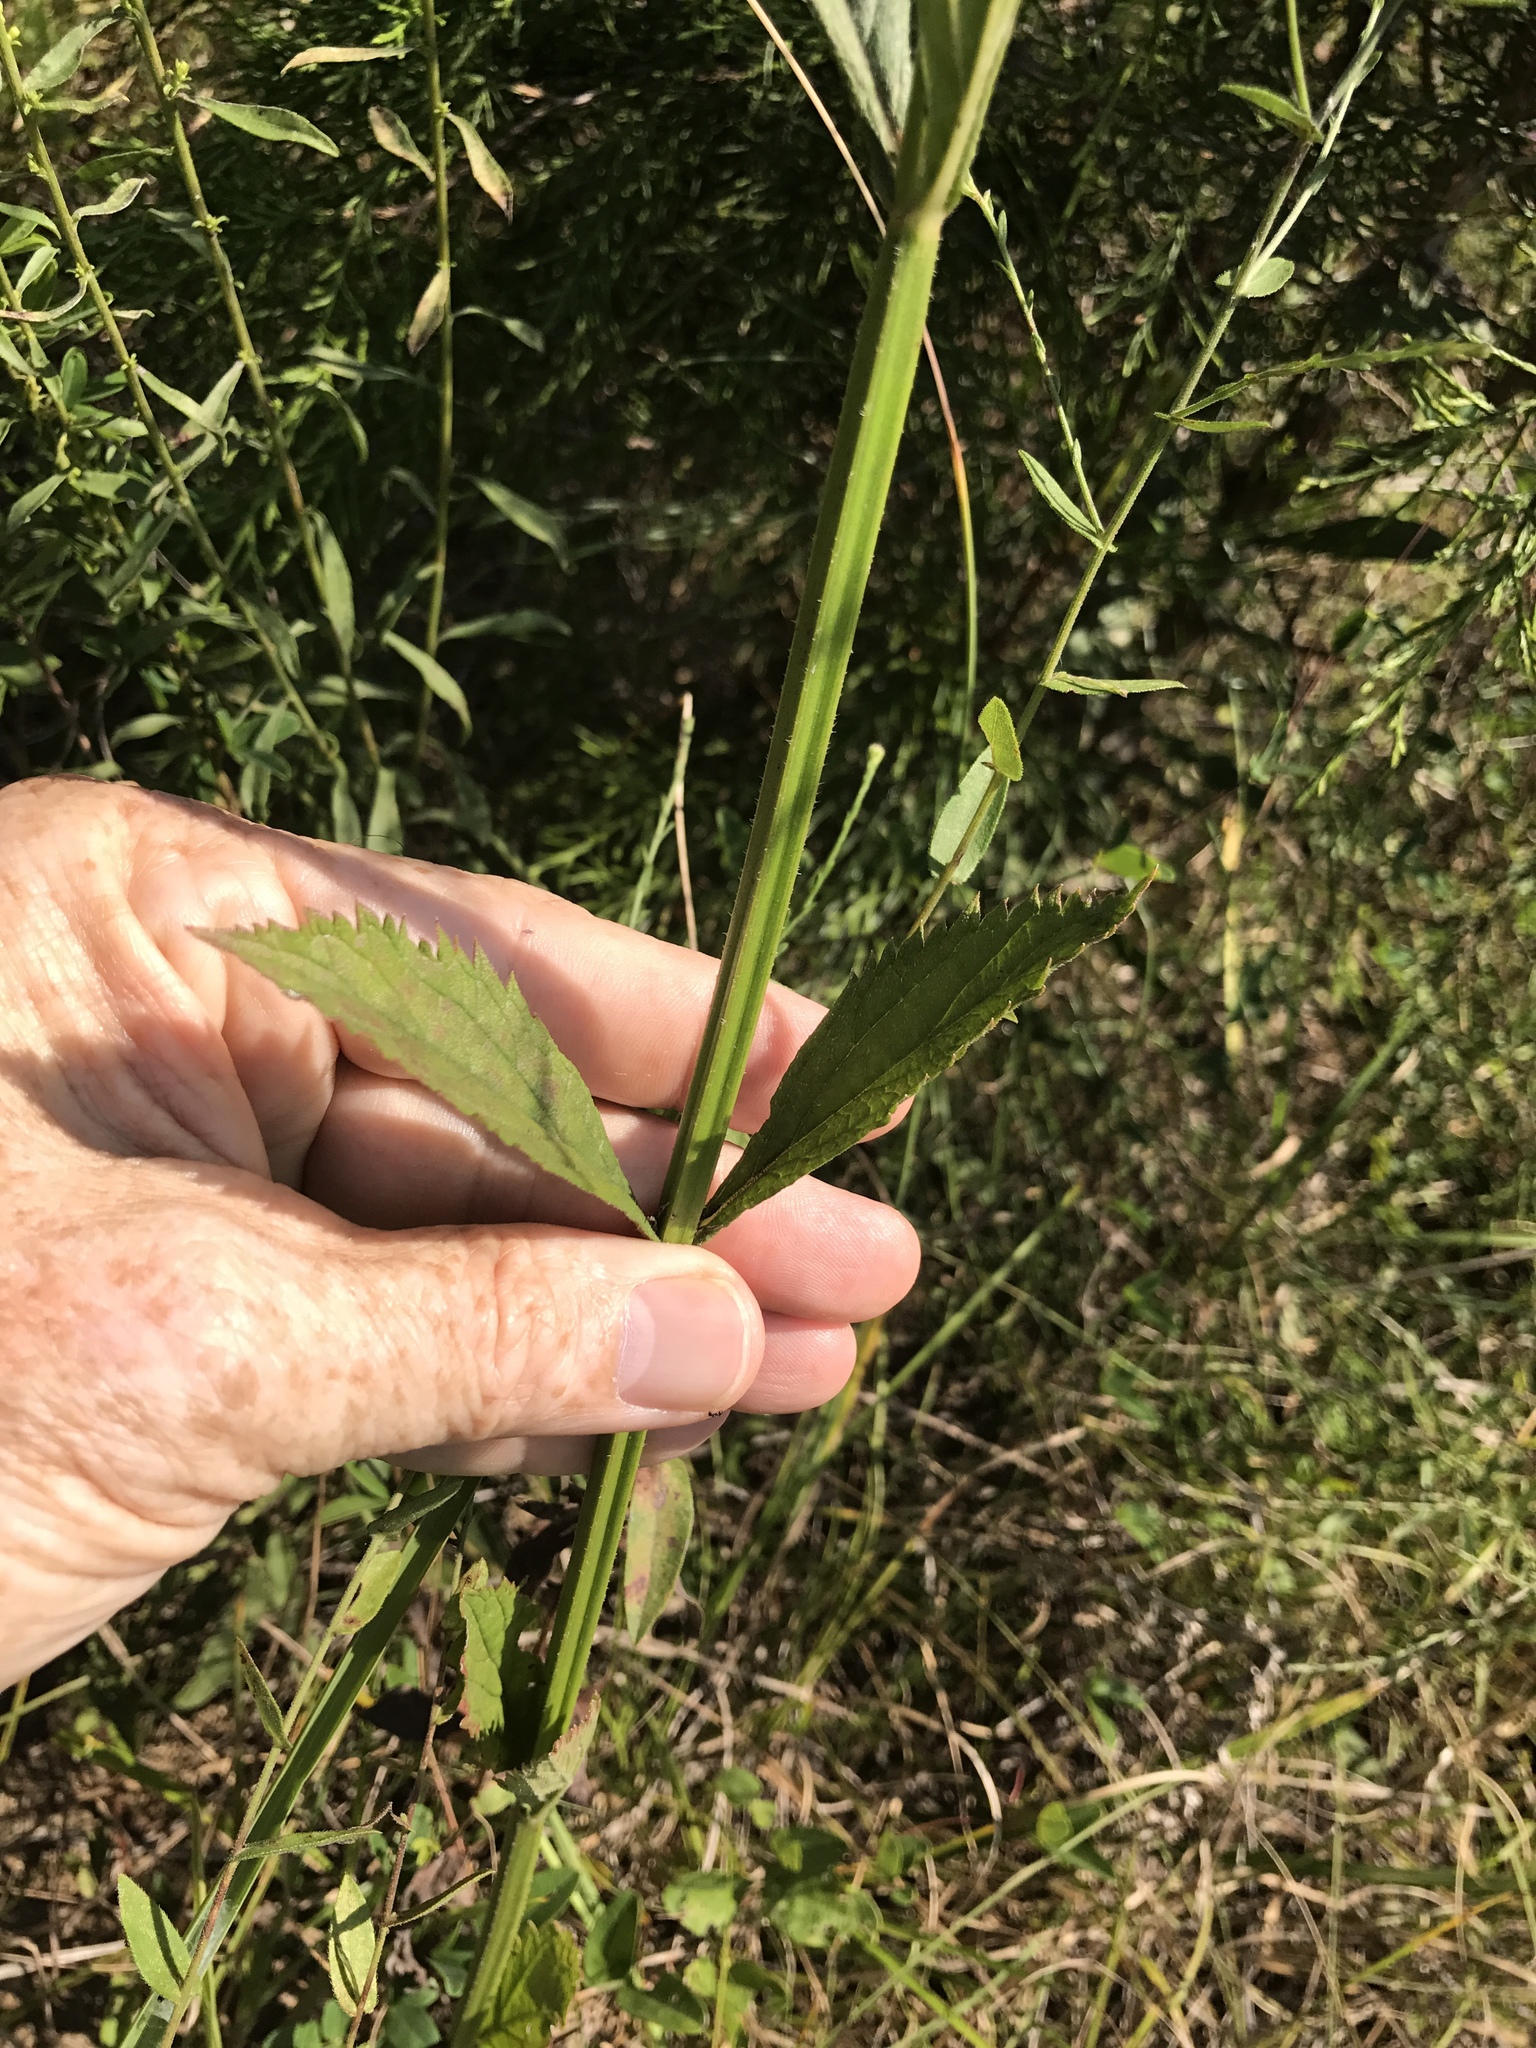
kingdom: Plantae
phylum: Tracheophyta
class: Magnoliopsida
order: Lamiales
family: Verbenaceae
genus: Verbena
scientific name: Verbena brasiliensis
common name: Brazilian vervain
